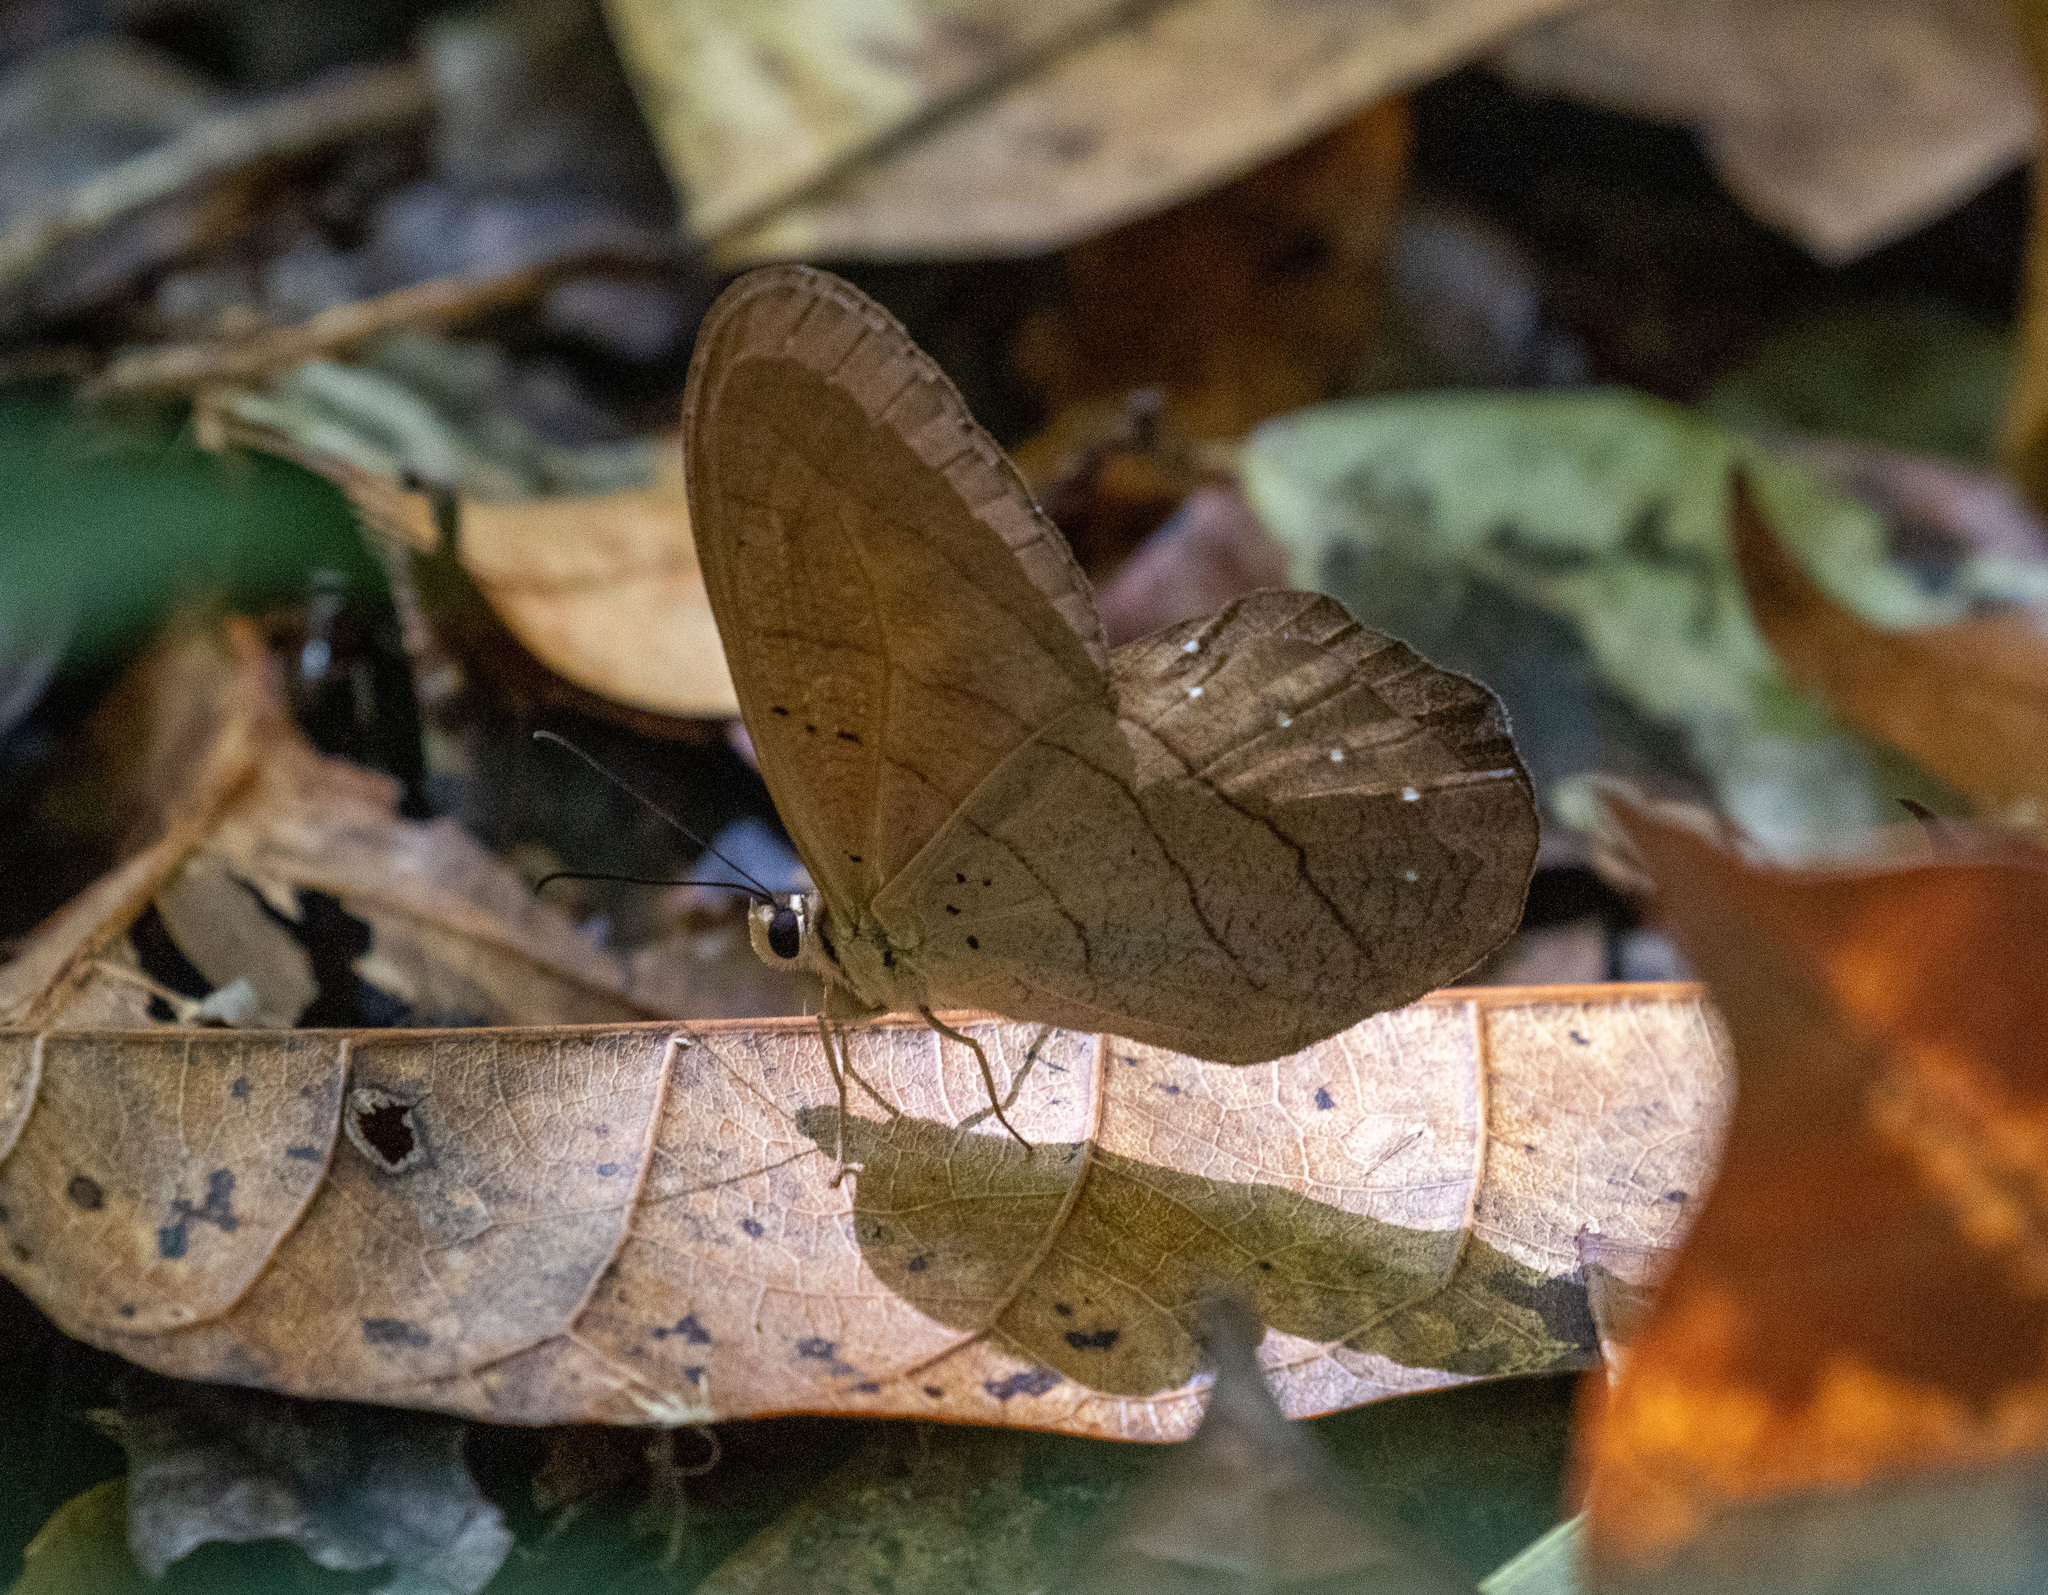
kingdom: Animalia
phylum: Arthropoda
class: Insecta
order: Lepidoptera
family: Nymphalidae
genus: Pierella
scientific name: Pierella kesselringi
